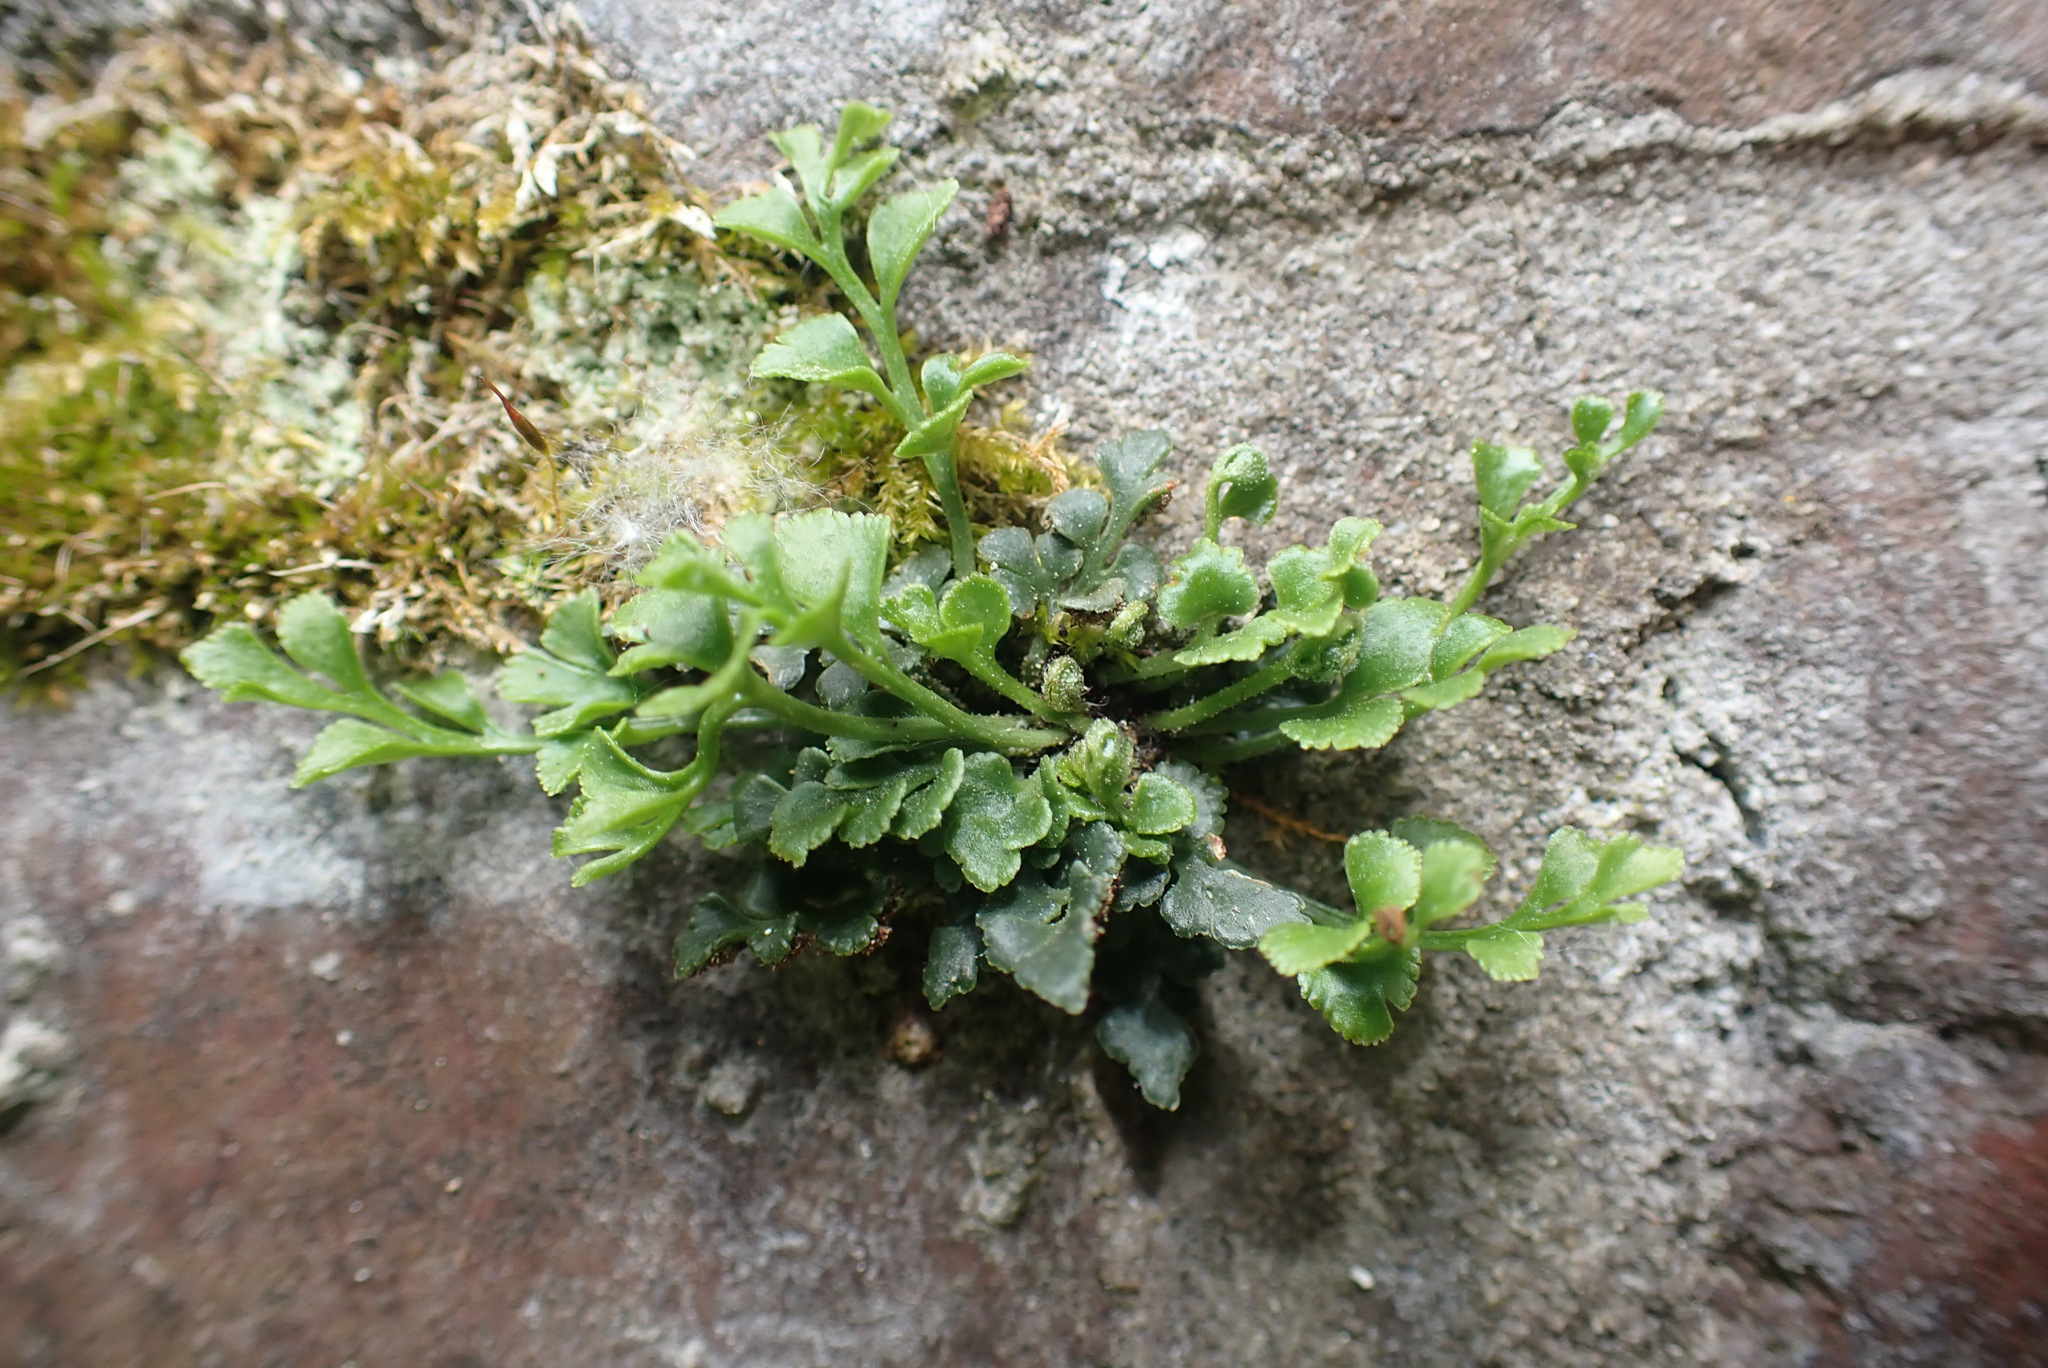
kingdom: Plantae
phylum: Tracheophyta
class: Polypodiopsida
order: Polypodiales
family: Aspleniaceae
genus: Asplenium
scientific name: Asplenium ruta-muraria
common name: Wall-rue
